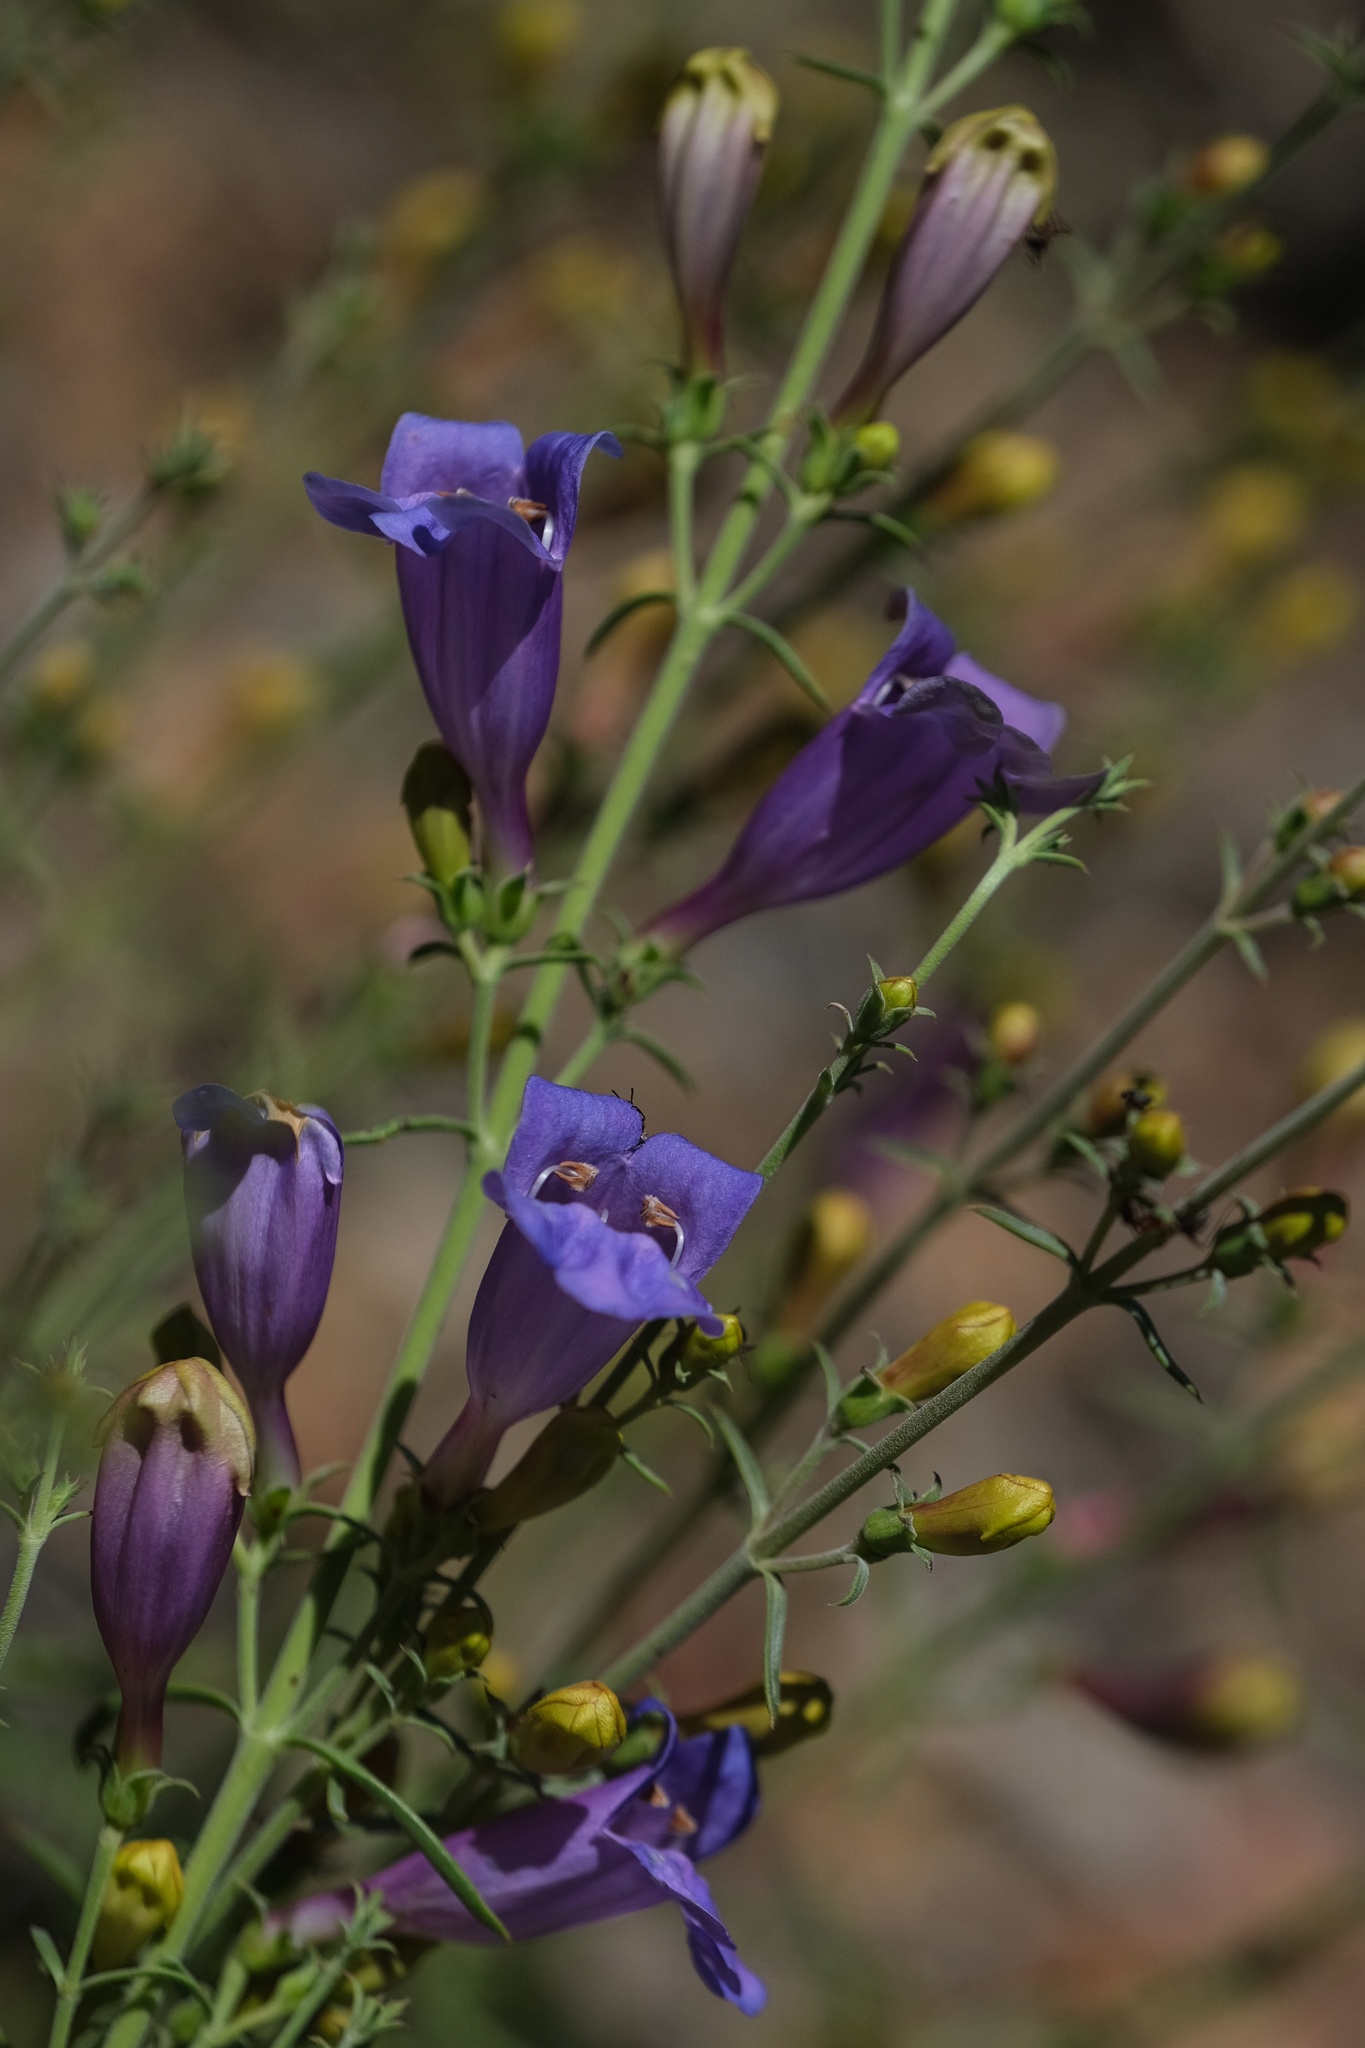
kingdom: Plantae
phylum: Tracheophyta
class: Magnoliopsida
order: Lamiales
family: Plantaginaceae
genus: Penstemon
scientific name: Penstemon heterophyllus
